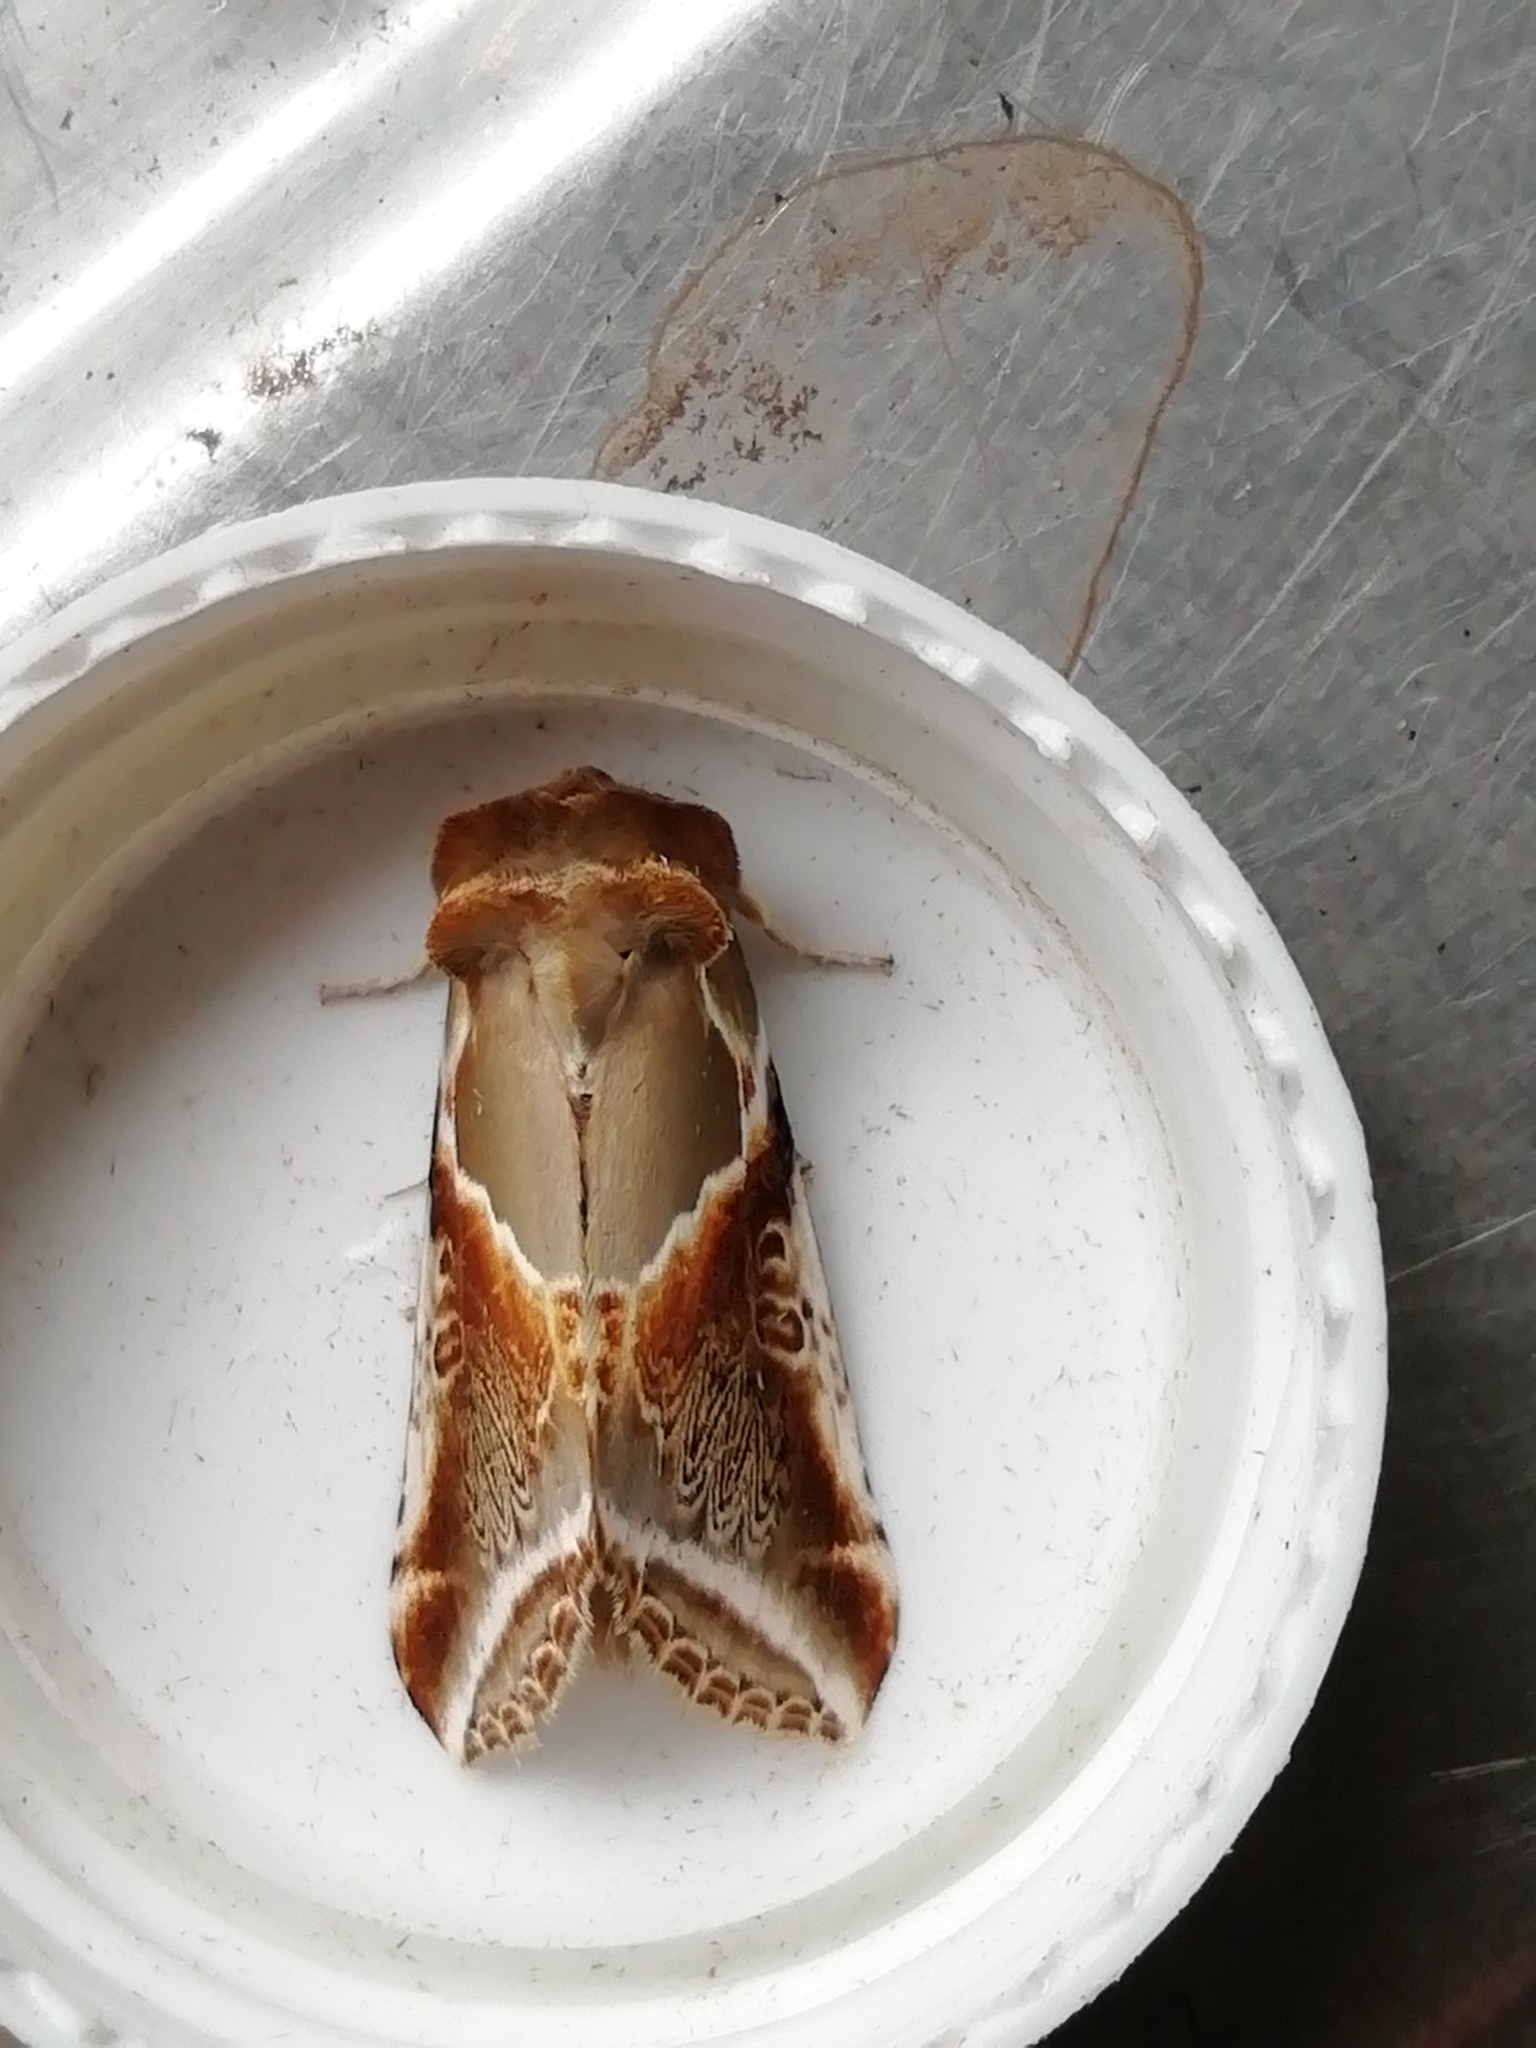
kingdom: Animalia
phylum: Arthropoda
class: Insecta
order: Lepidoptera
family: Drepanidae
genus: Habrosyne
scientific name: Habrosyne pyritoides
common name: Buff arches
